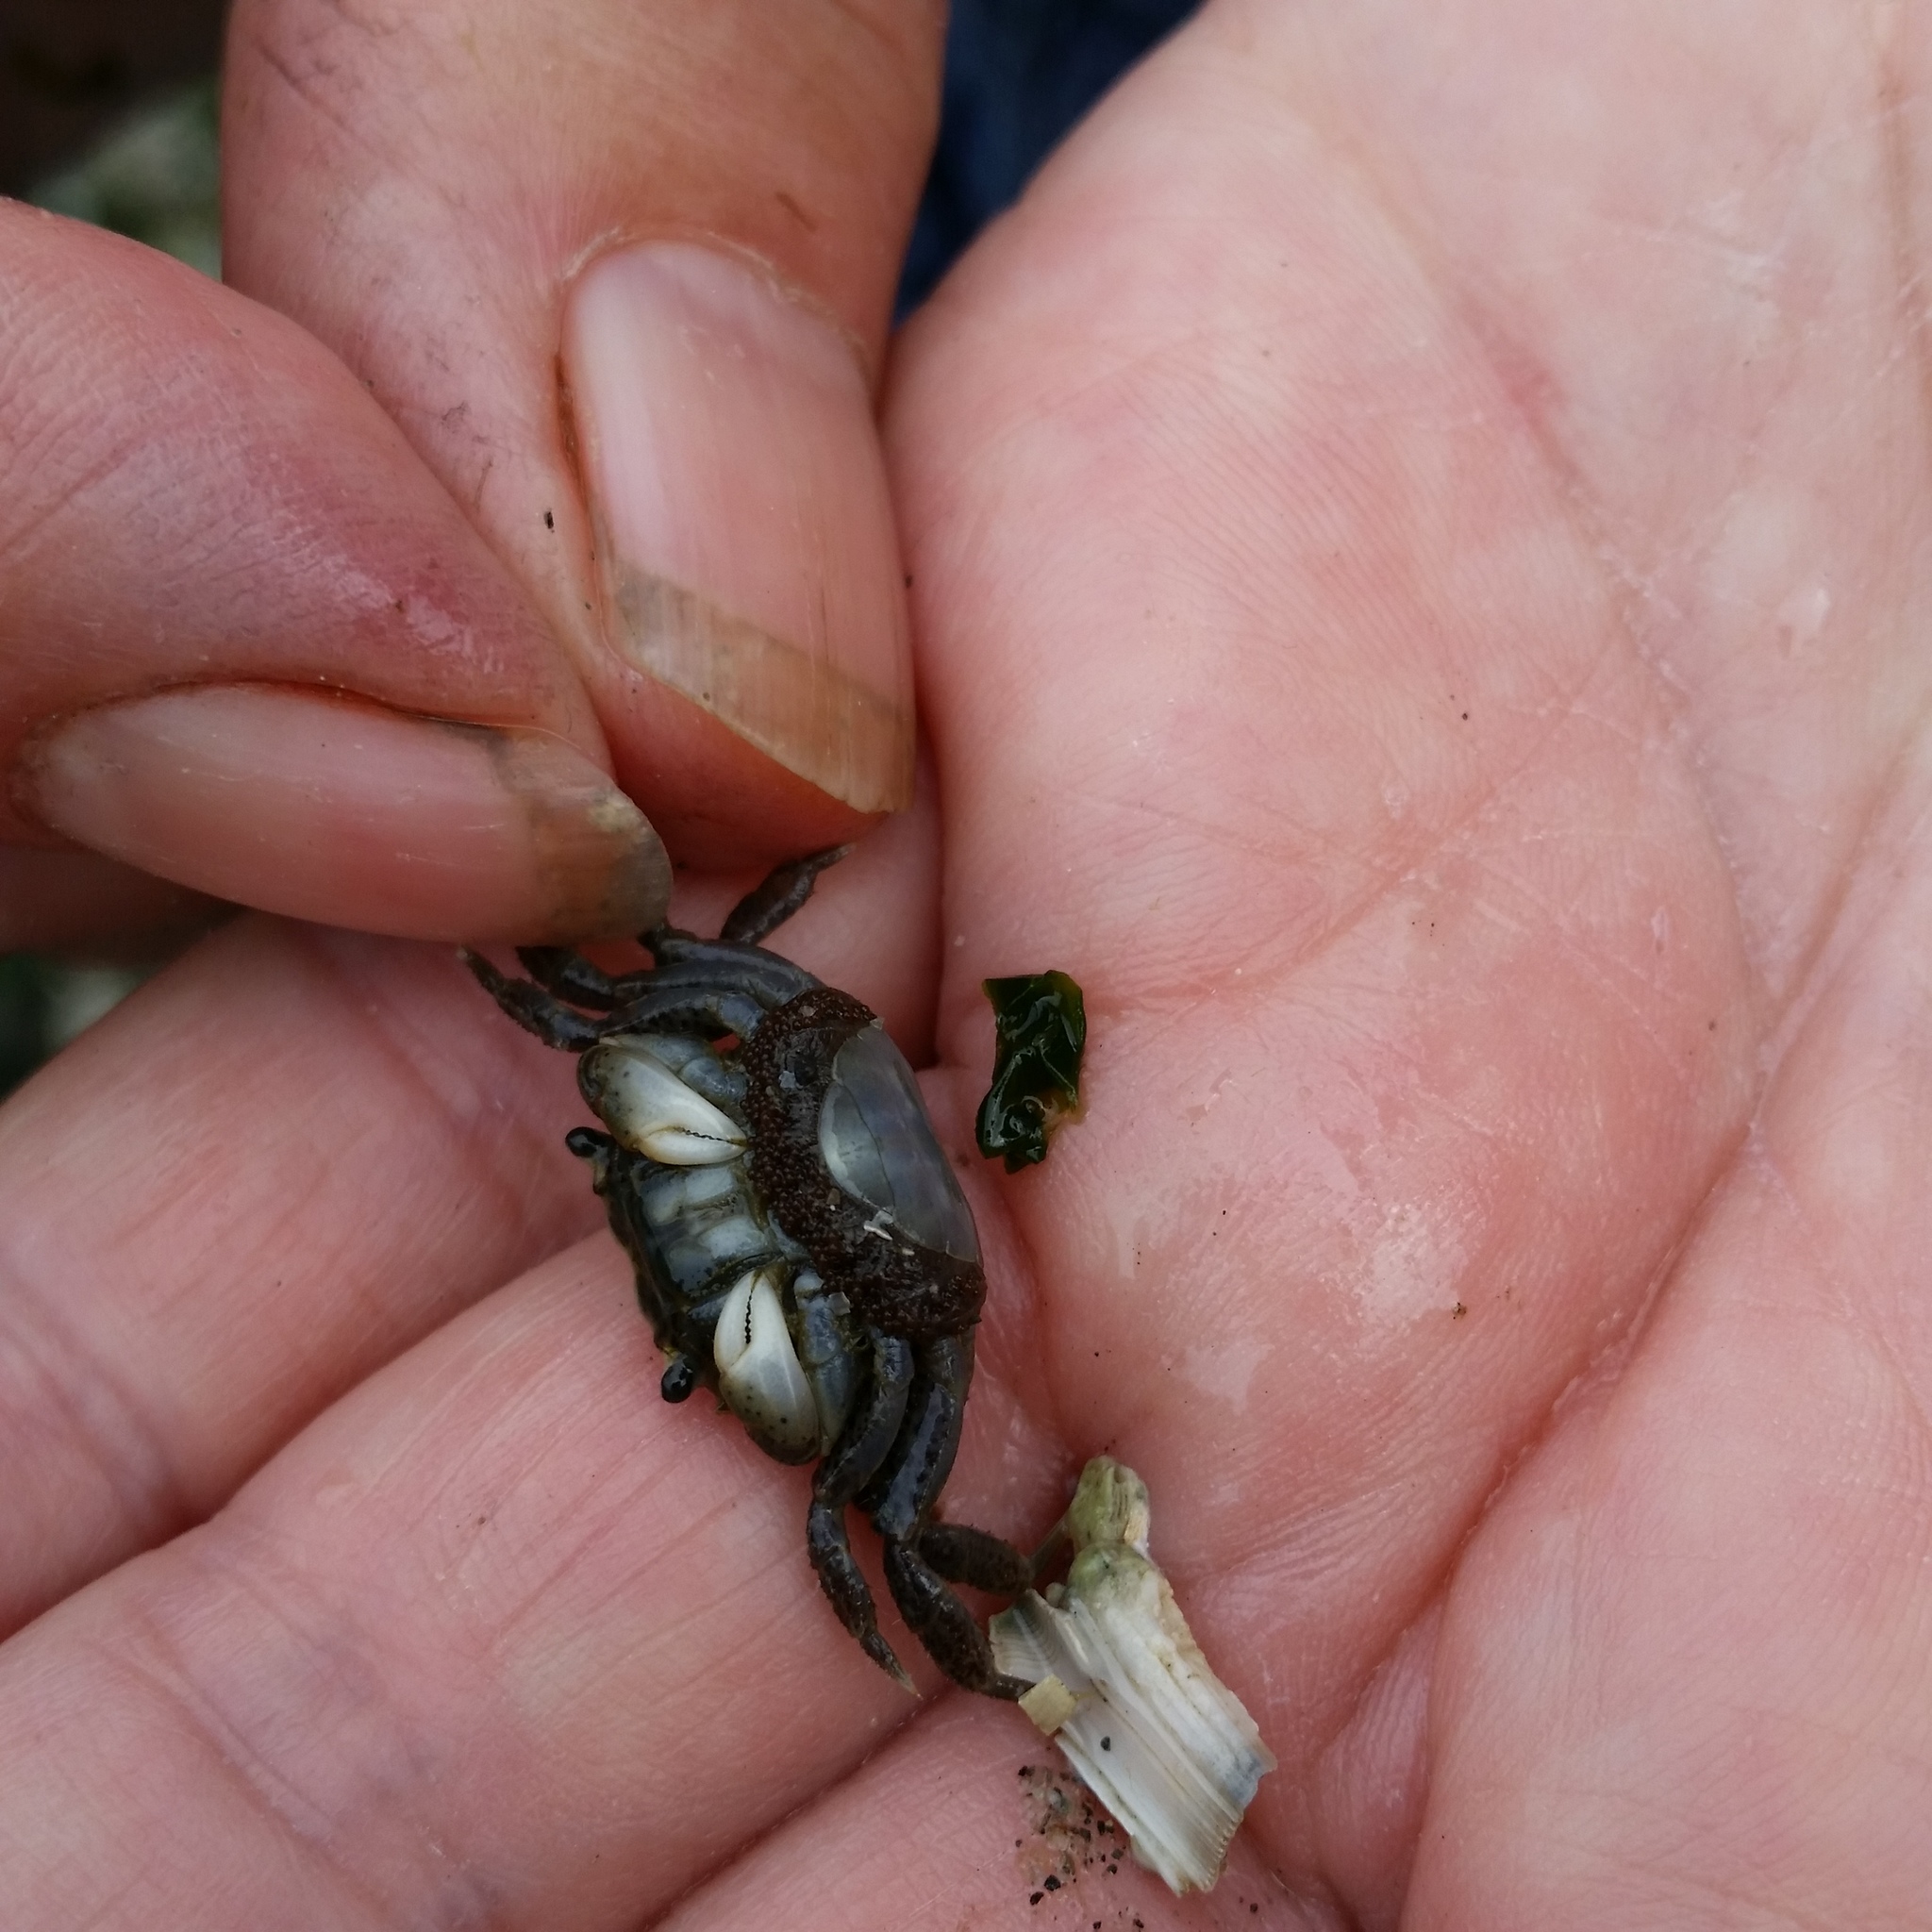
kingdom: Animalia
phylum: Arthropoda
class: Malacostraca
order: Decapoda
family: Varunidae
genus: Hemigrapsus
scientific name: Hemigrapsus oregonensis
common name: Yellow shore crab
